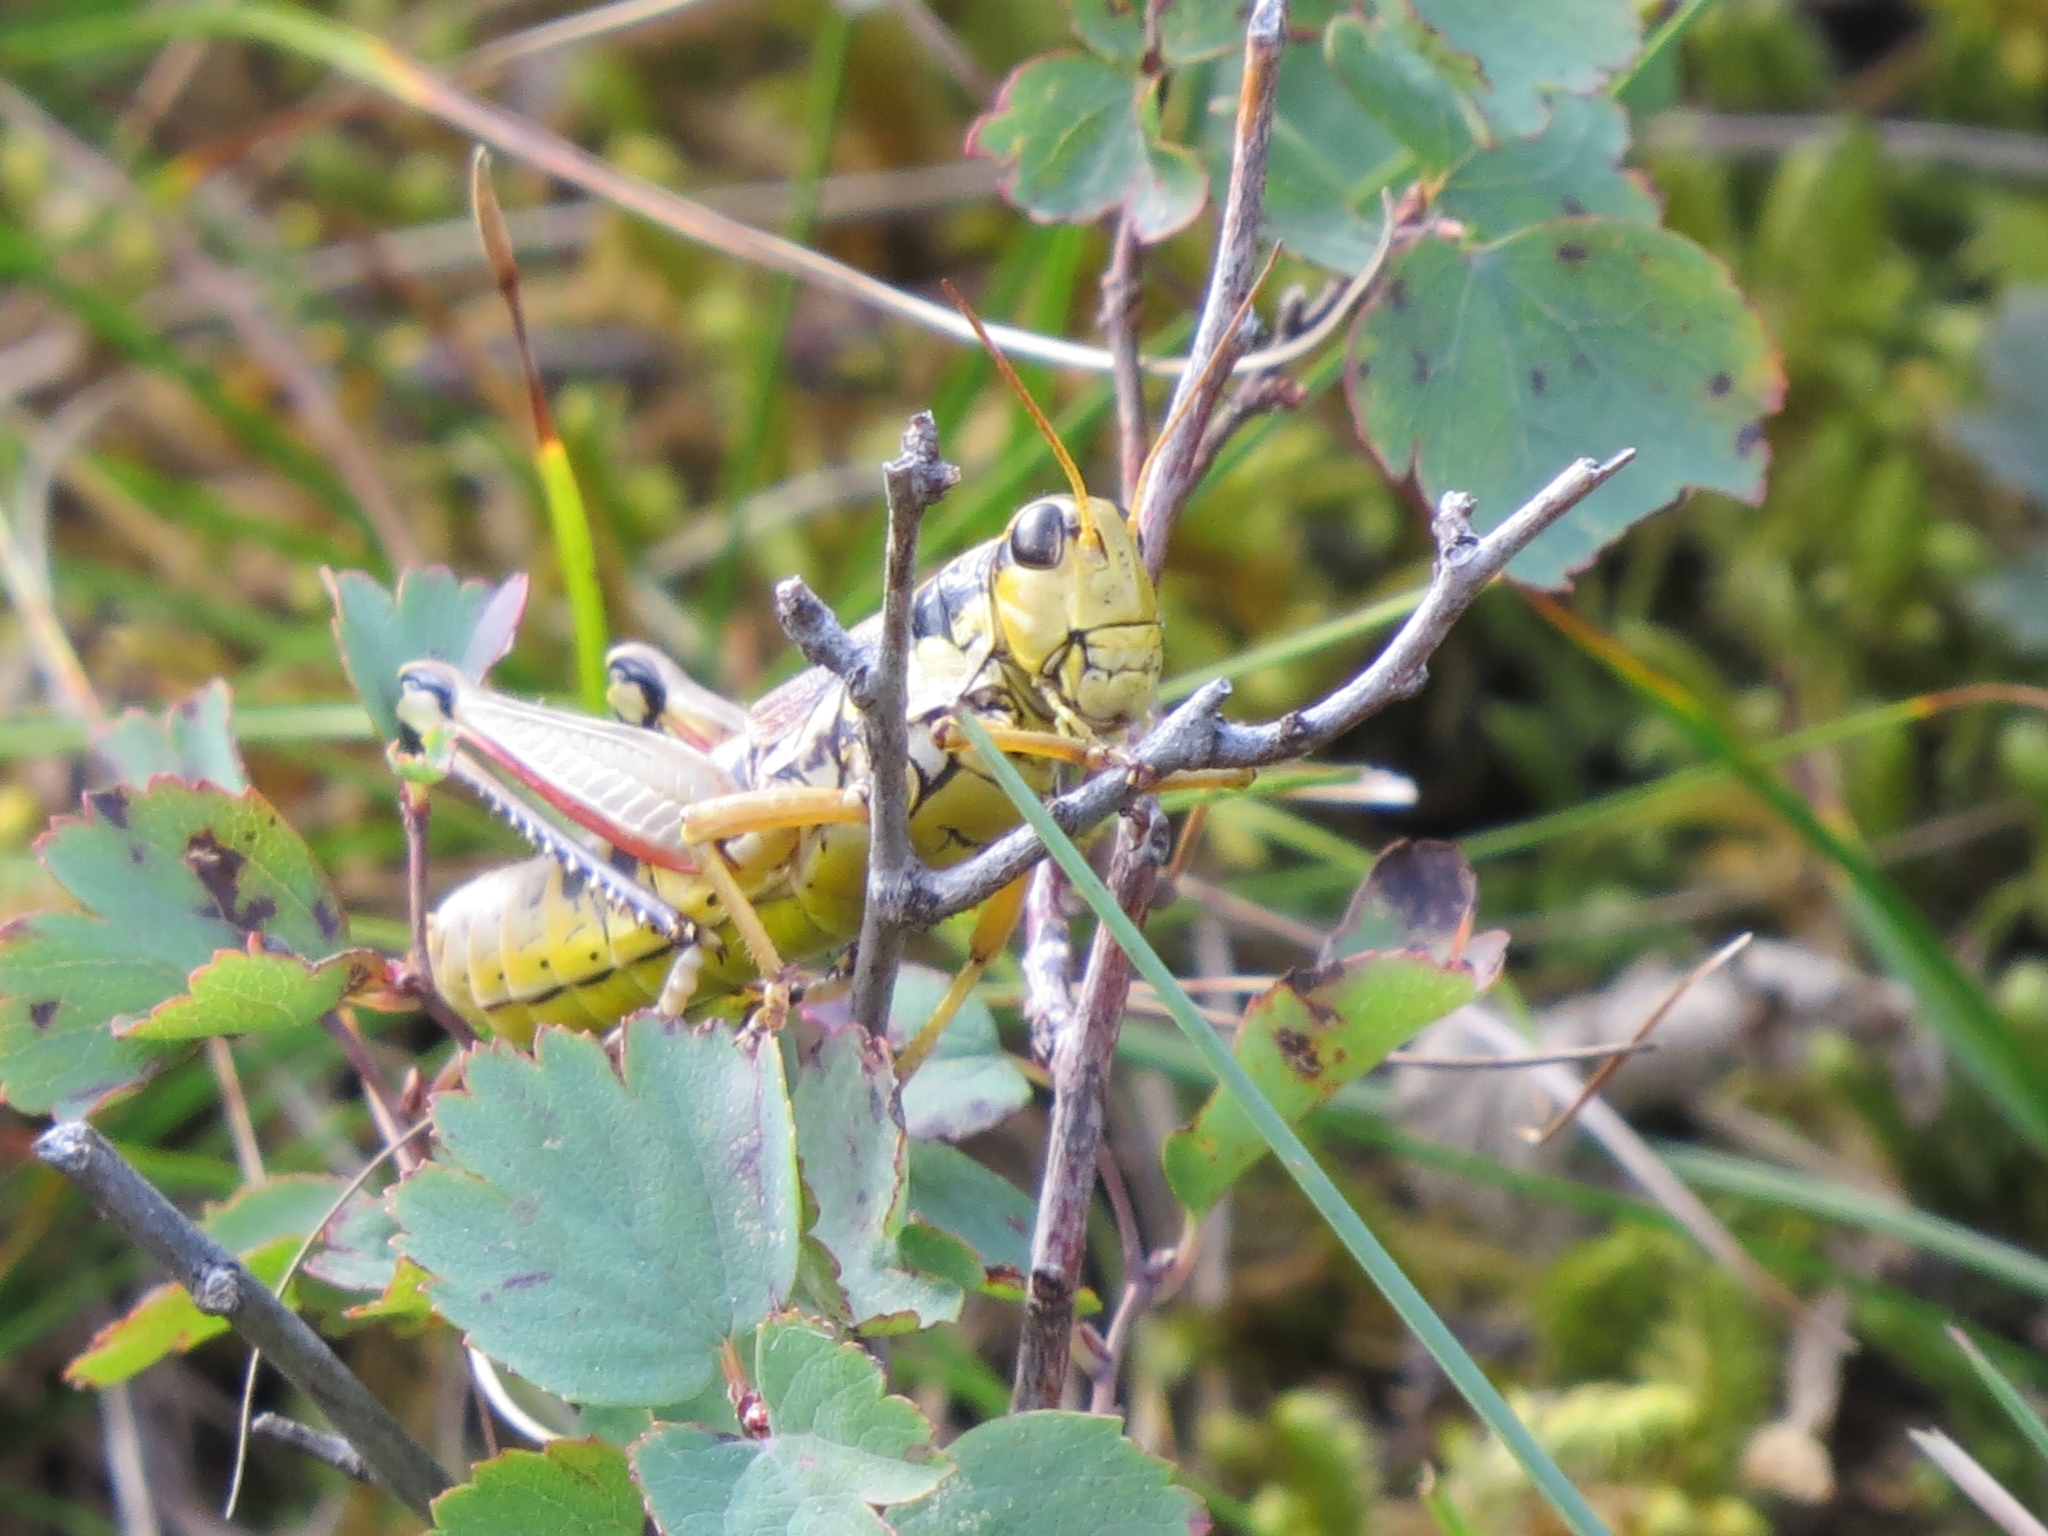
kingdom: Animalia
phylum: Arthropoda
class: Insecta
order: Orthoptera
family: Acrididae
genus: Podisma
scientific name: Podisma pedestris
